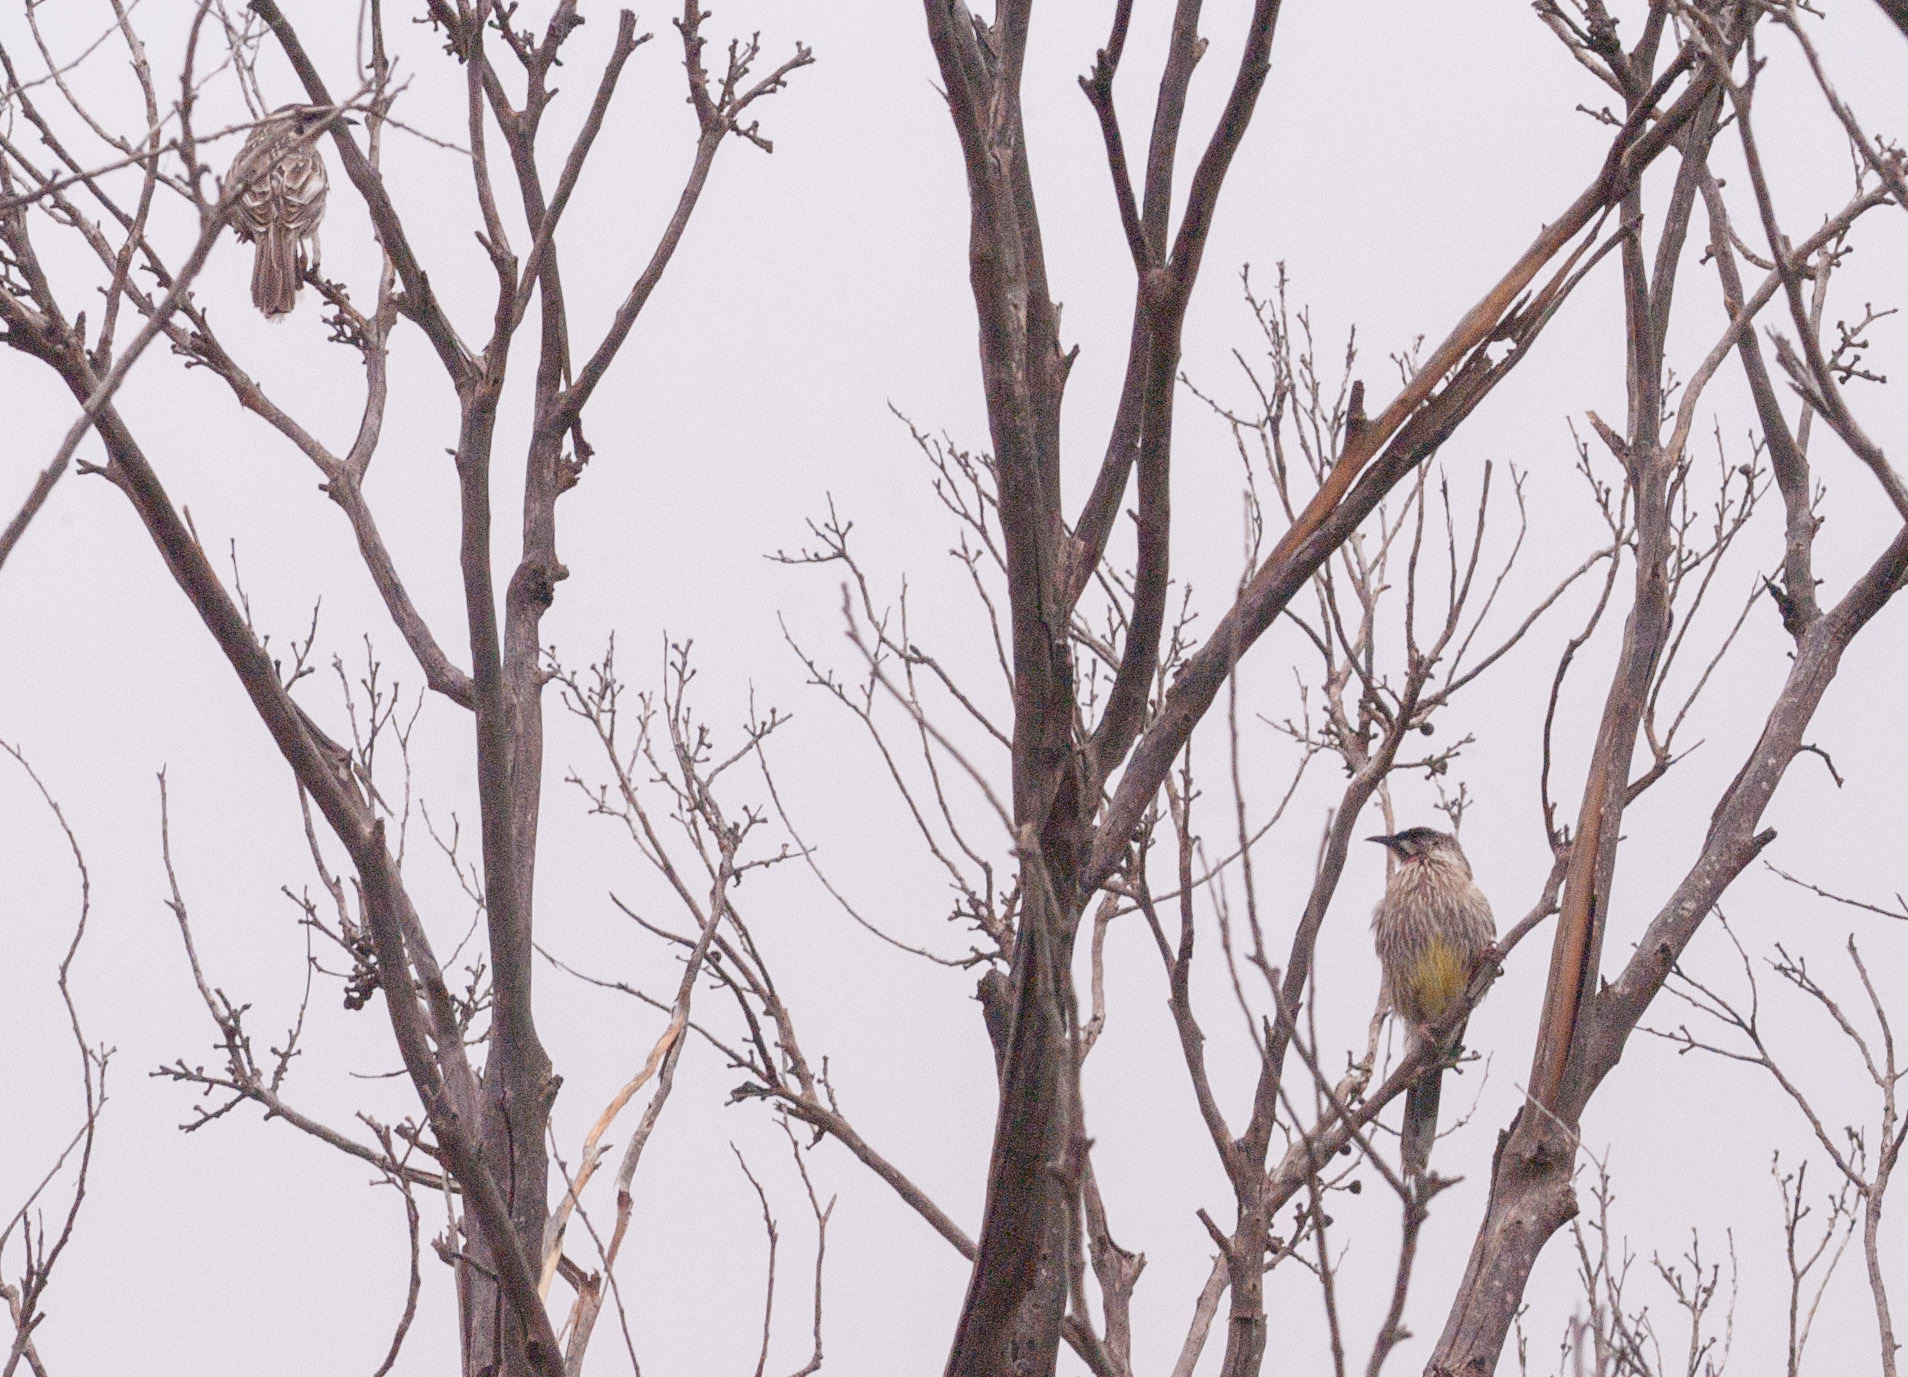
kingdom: Animalia
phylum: Chordata
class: Aves
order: Passeriformes
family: Meliphagidae
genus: Anthochaera
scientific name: Anthochaera carunculata
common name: Red wattlebird
